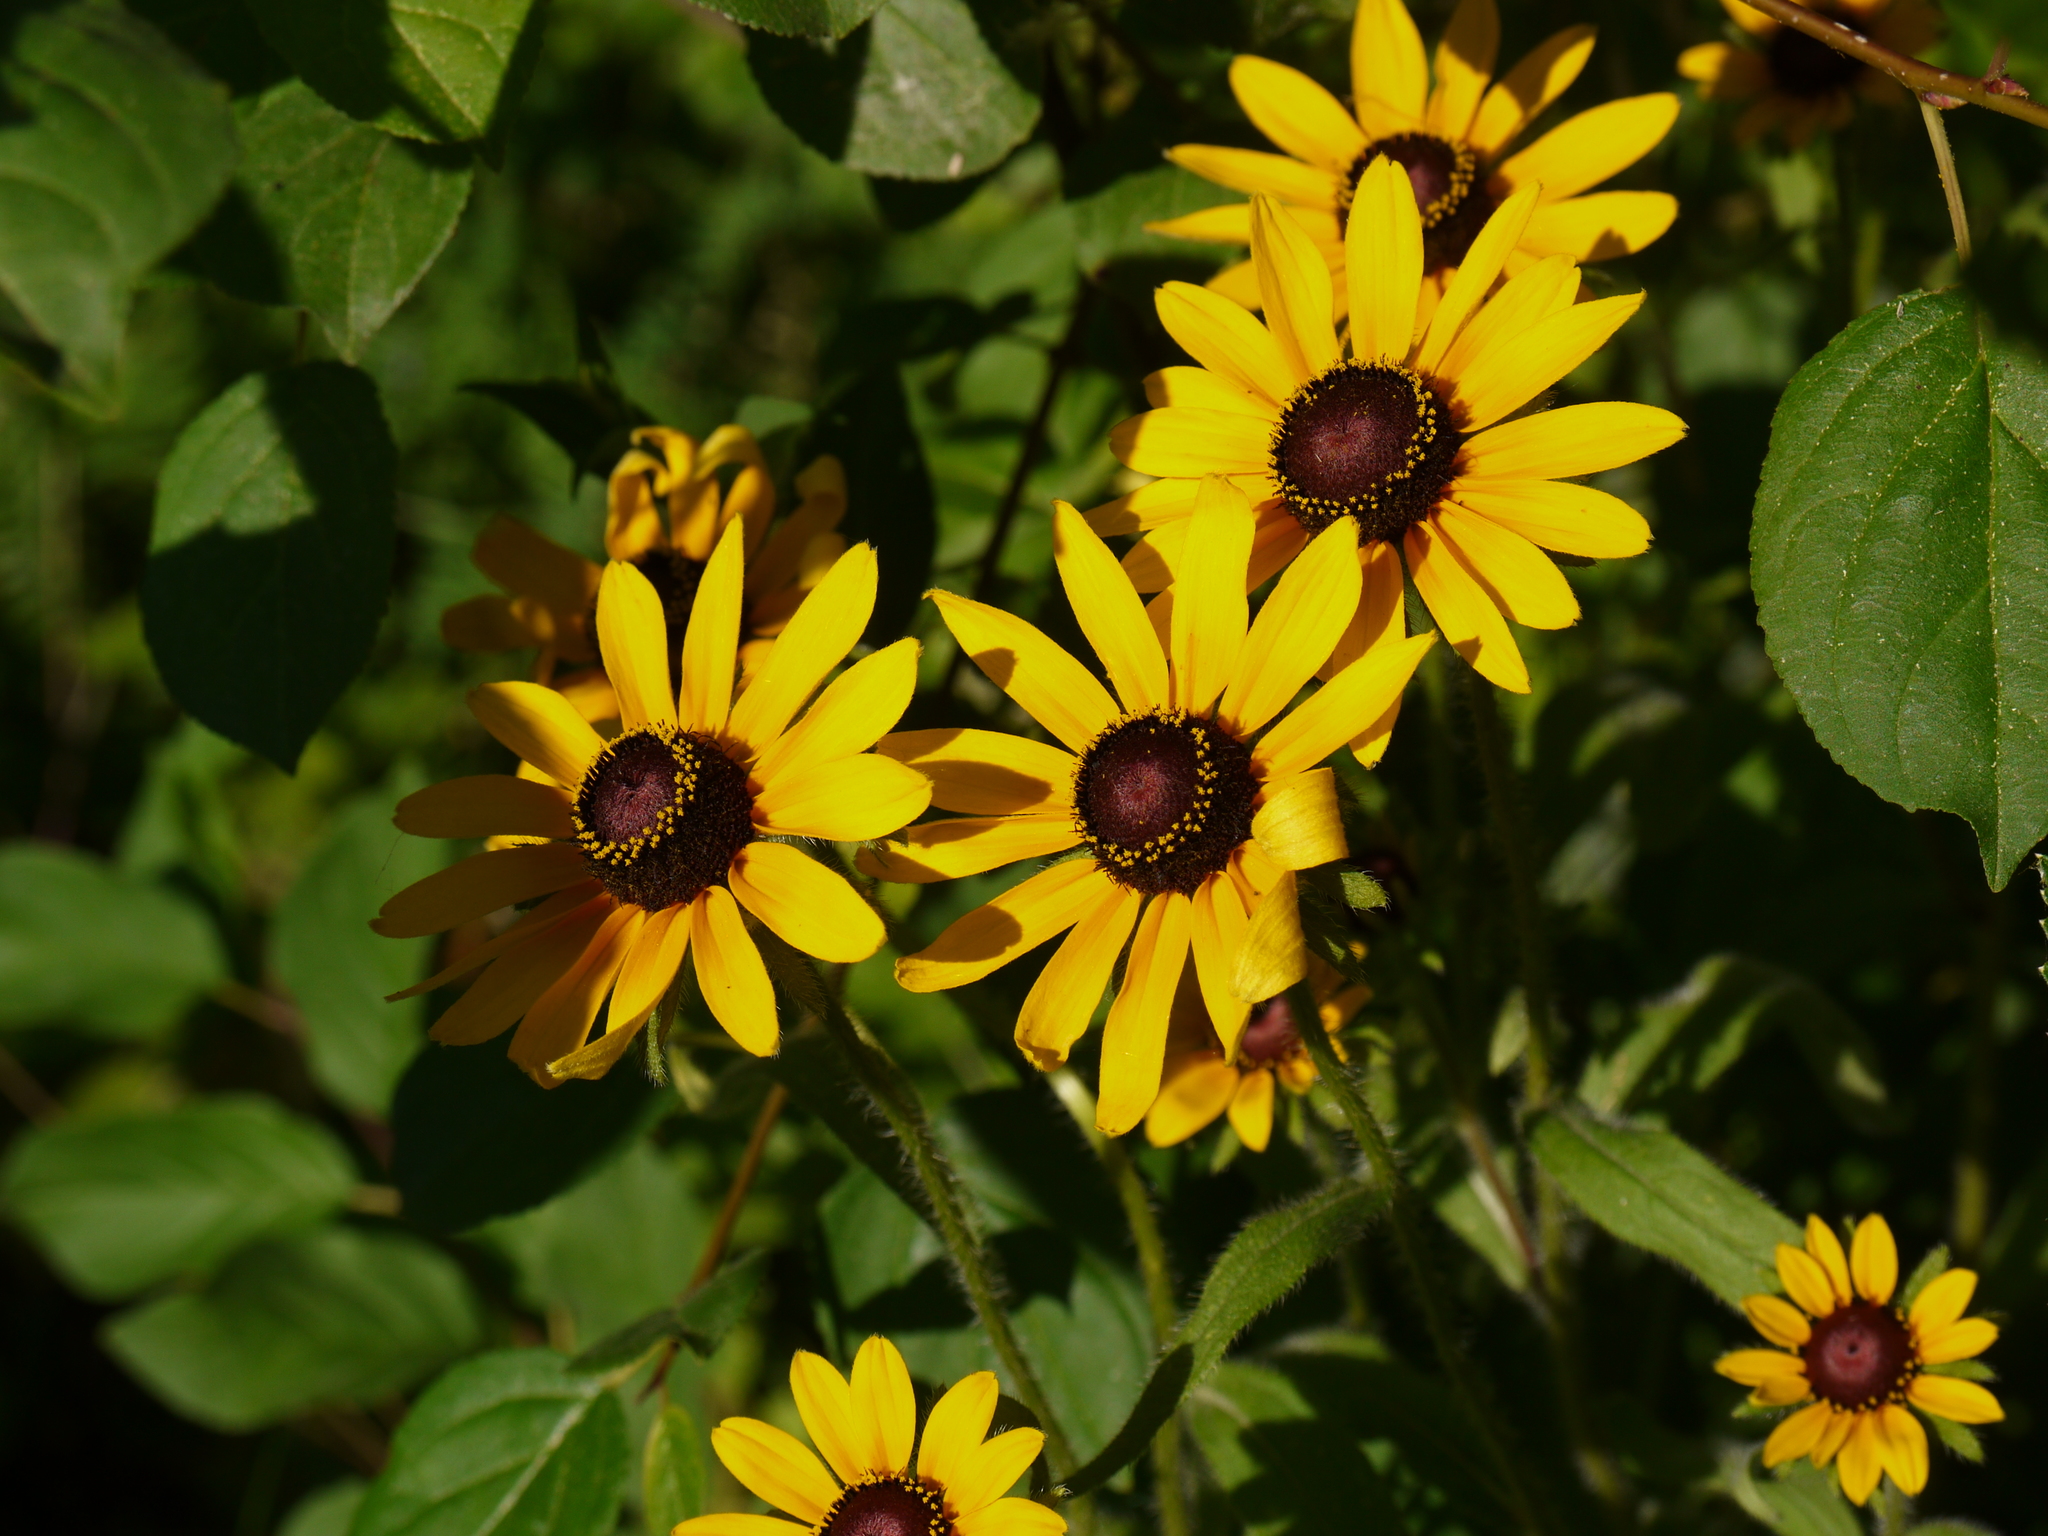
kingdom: Plantae
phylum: Tracheophyta
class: Magnoliopsida
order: Asterales
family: Asteraceae
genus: Rudbeckia
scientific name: Rudbeckia hirta
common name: Black-eyed-susan
